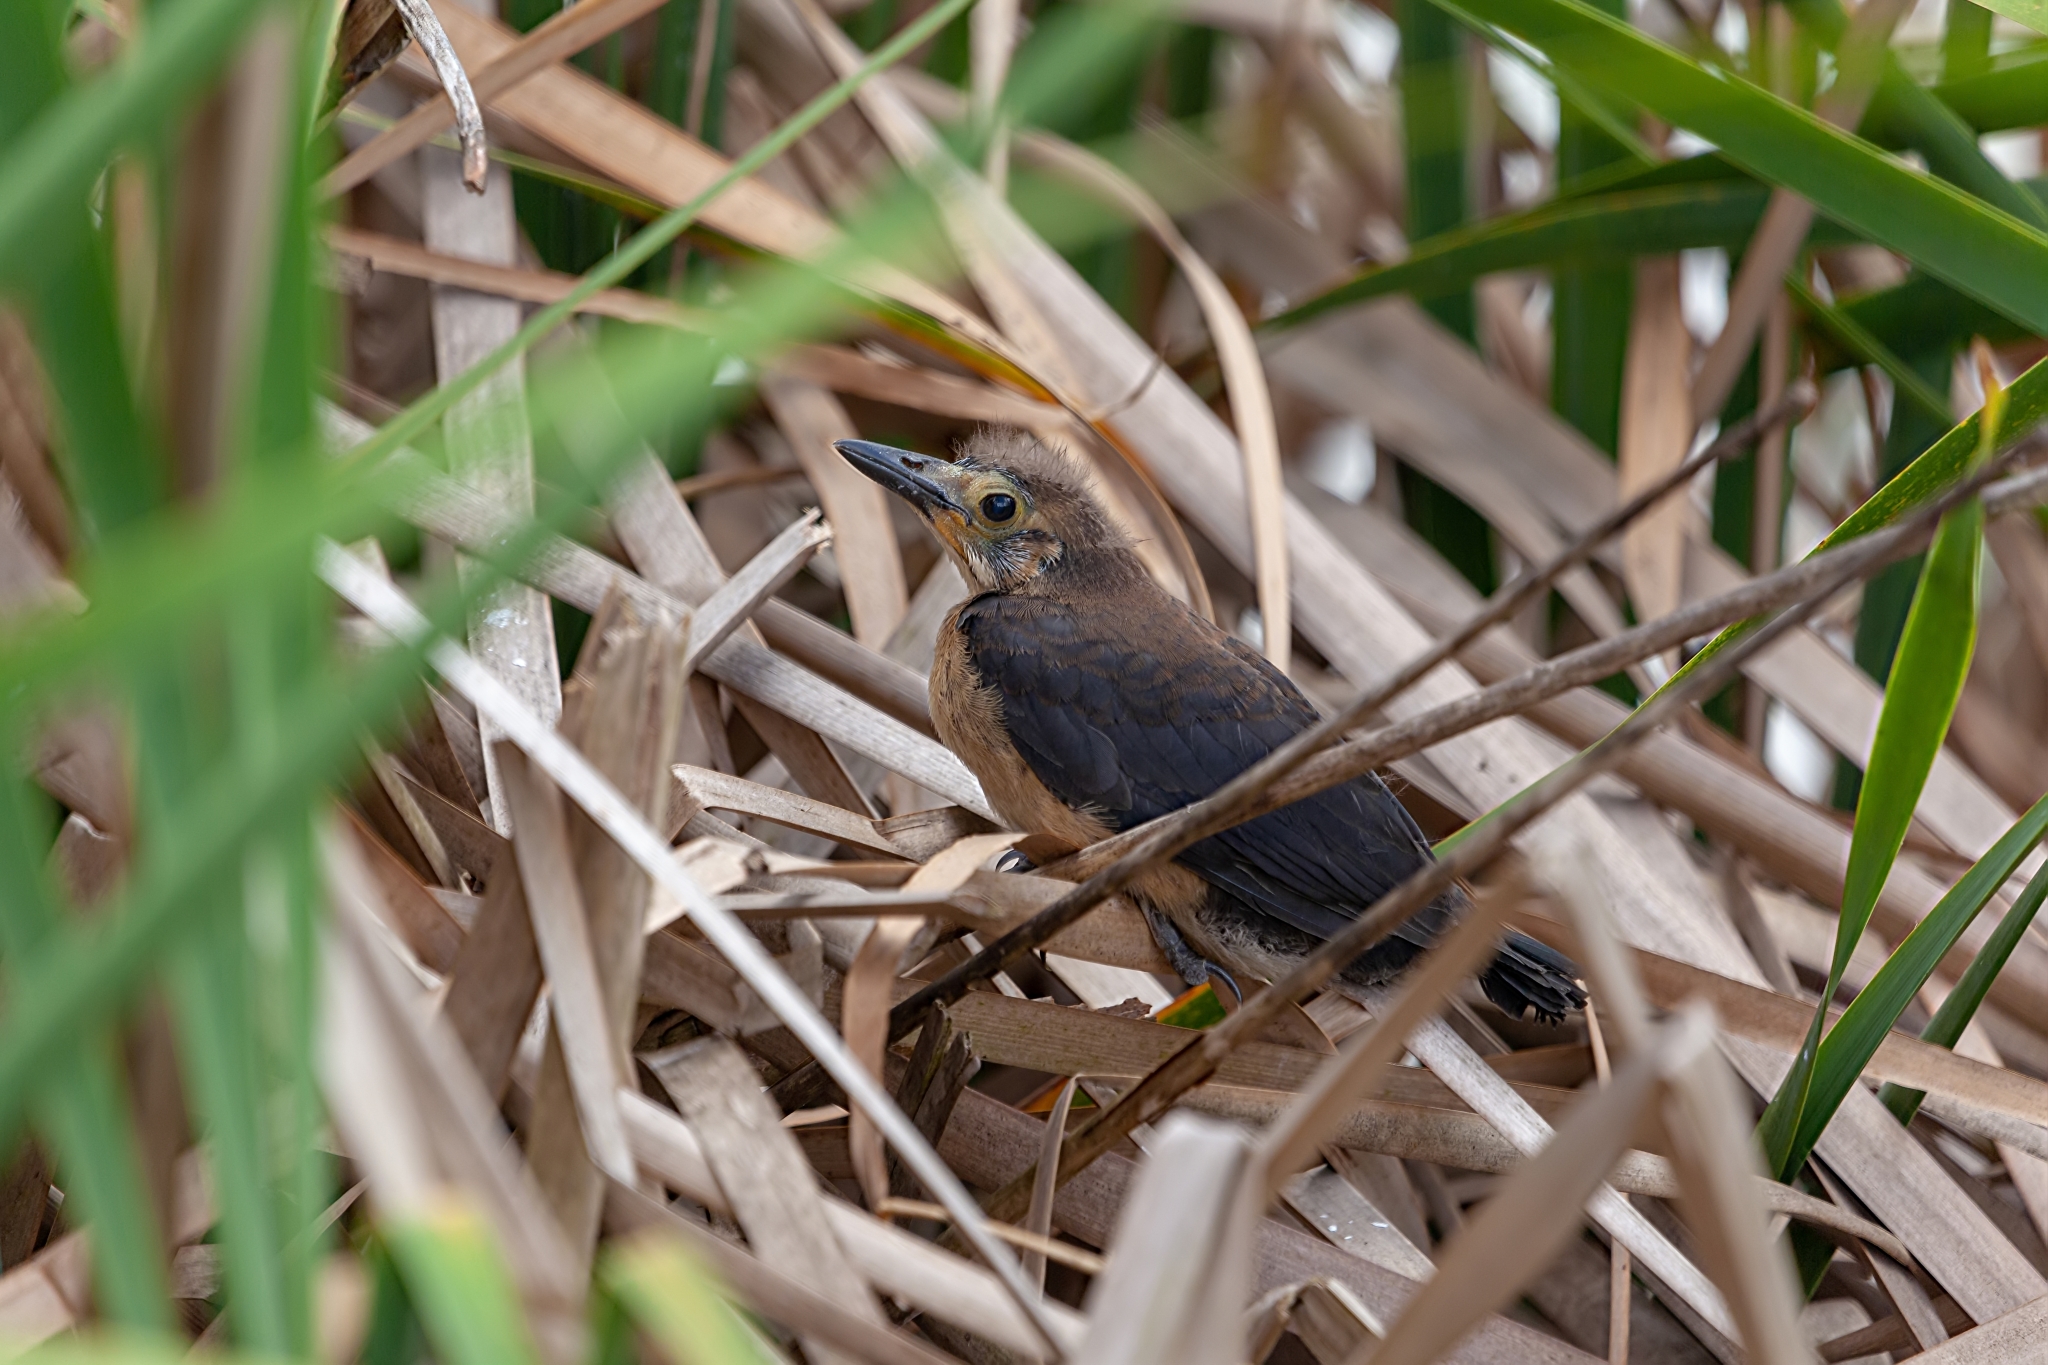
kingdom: Animalia
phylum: Chordata
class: Aves
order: Passeriformes
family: Icteridae
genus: Quiscalus
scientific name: Quiscalus major
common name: Boat-tailed grackle
